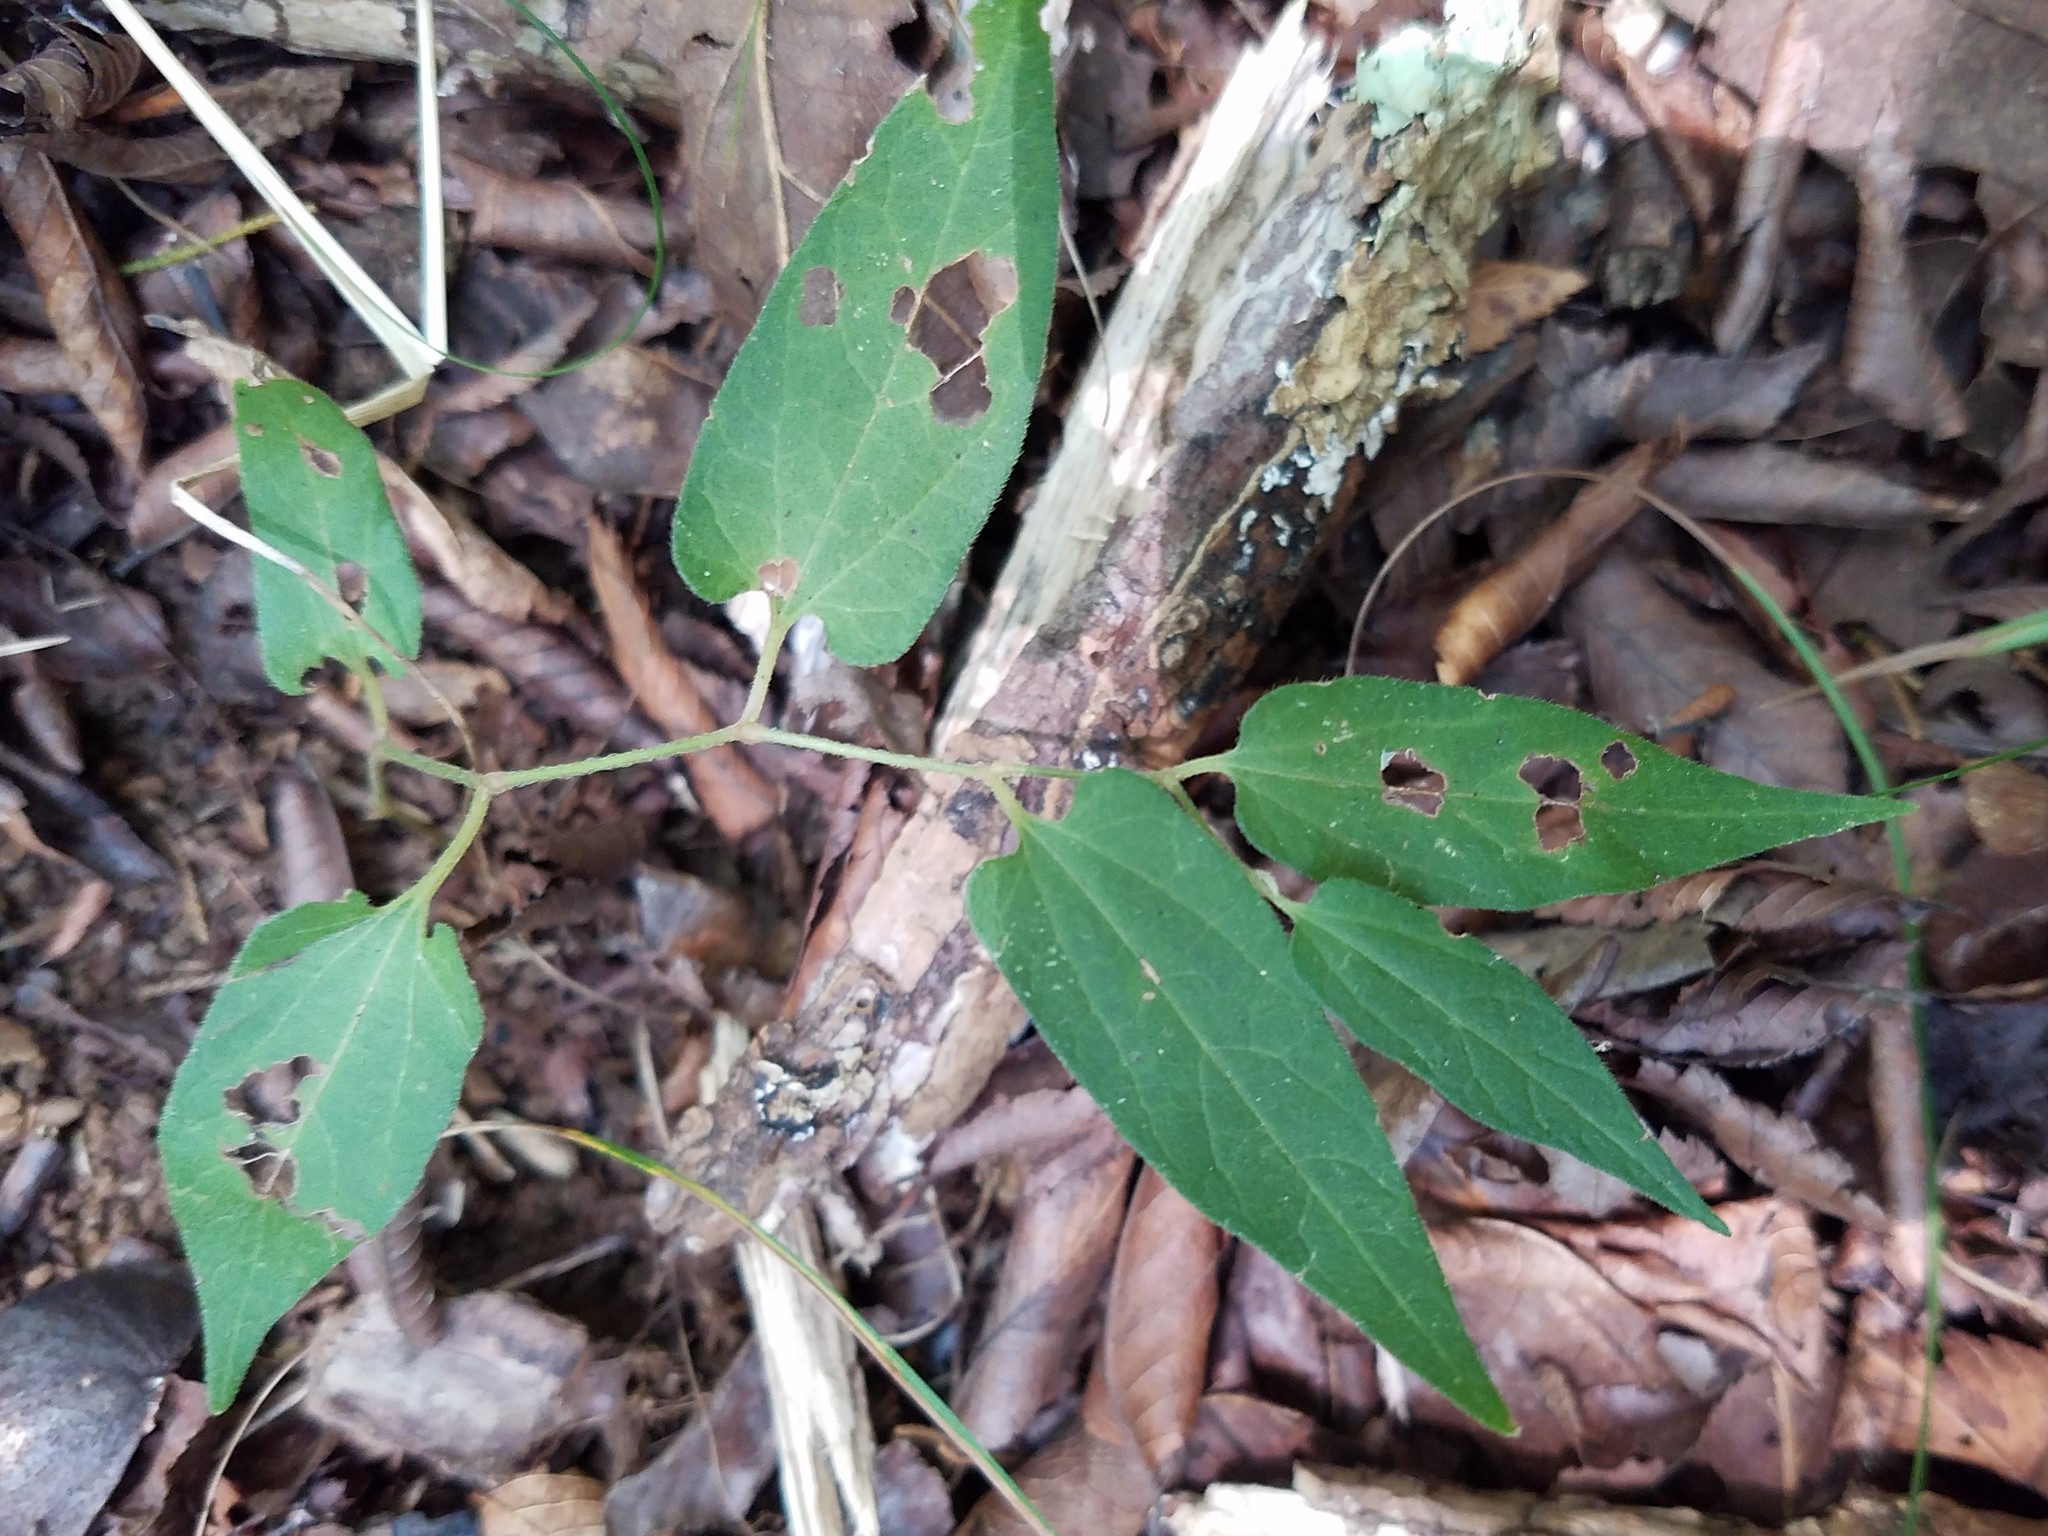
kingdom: Plantae
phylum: Tracheophyta
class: Magnoliopsida
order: Piperales
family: Aristolochiaceae
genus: Endodeca
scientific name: Endodeca serpentaria
